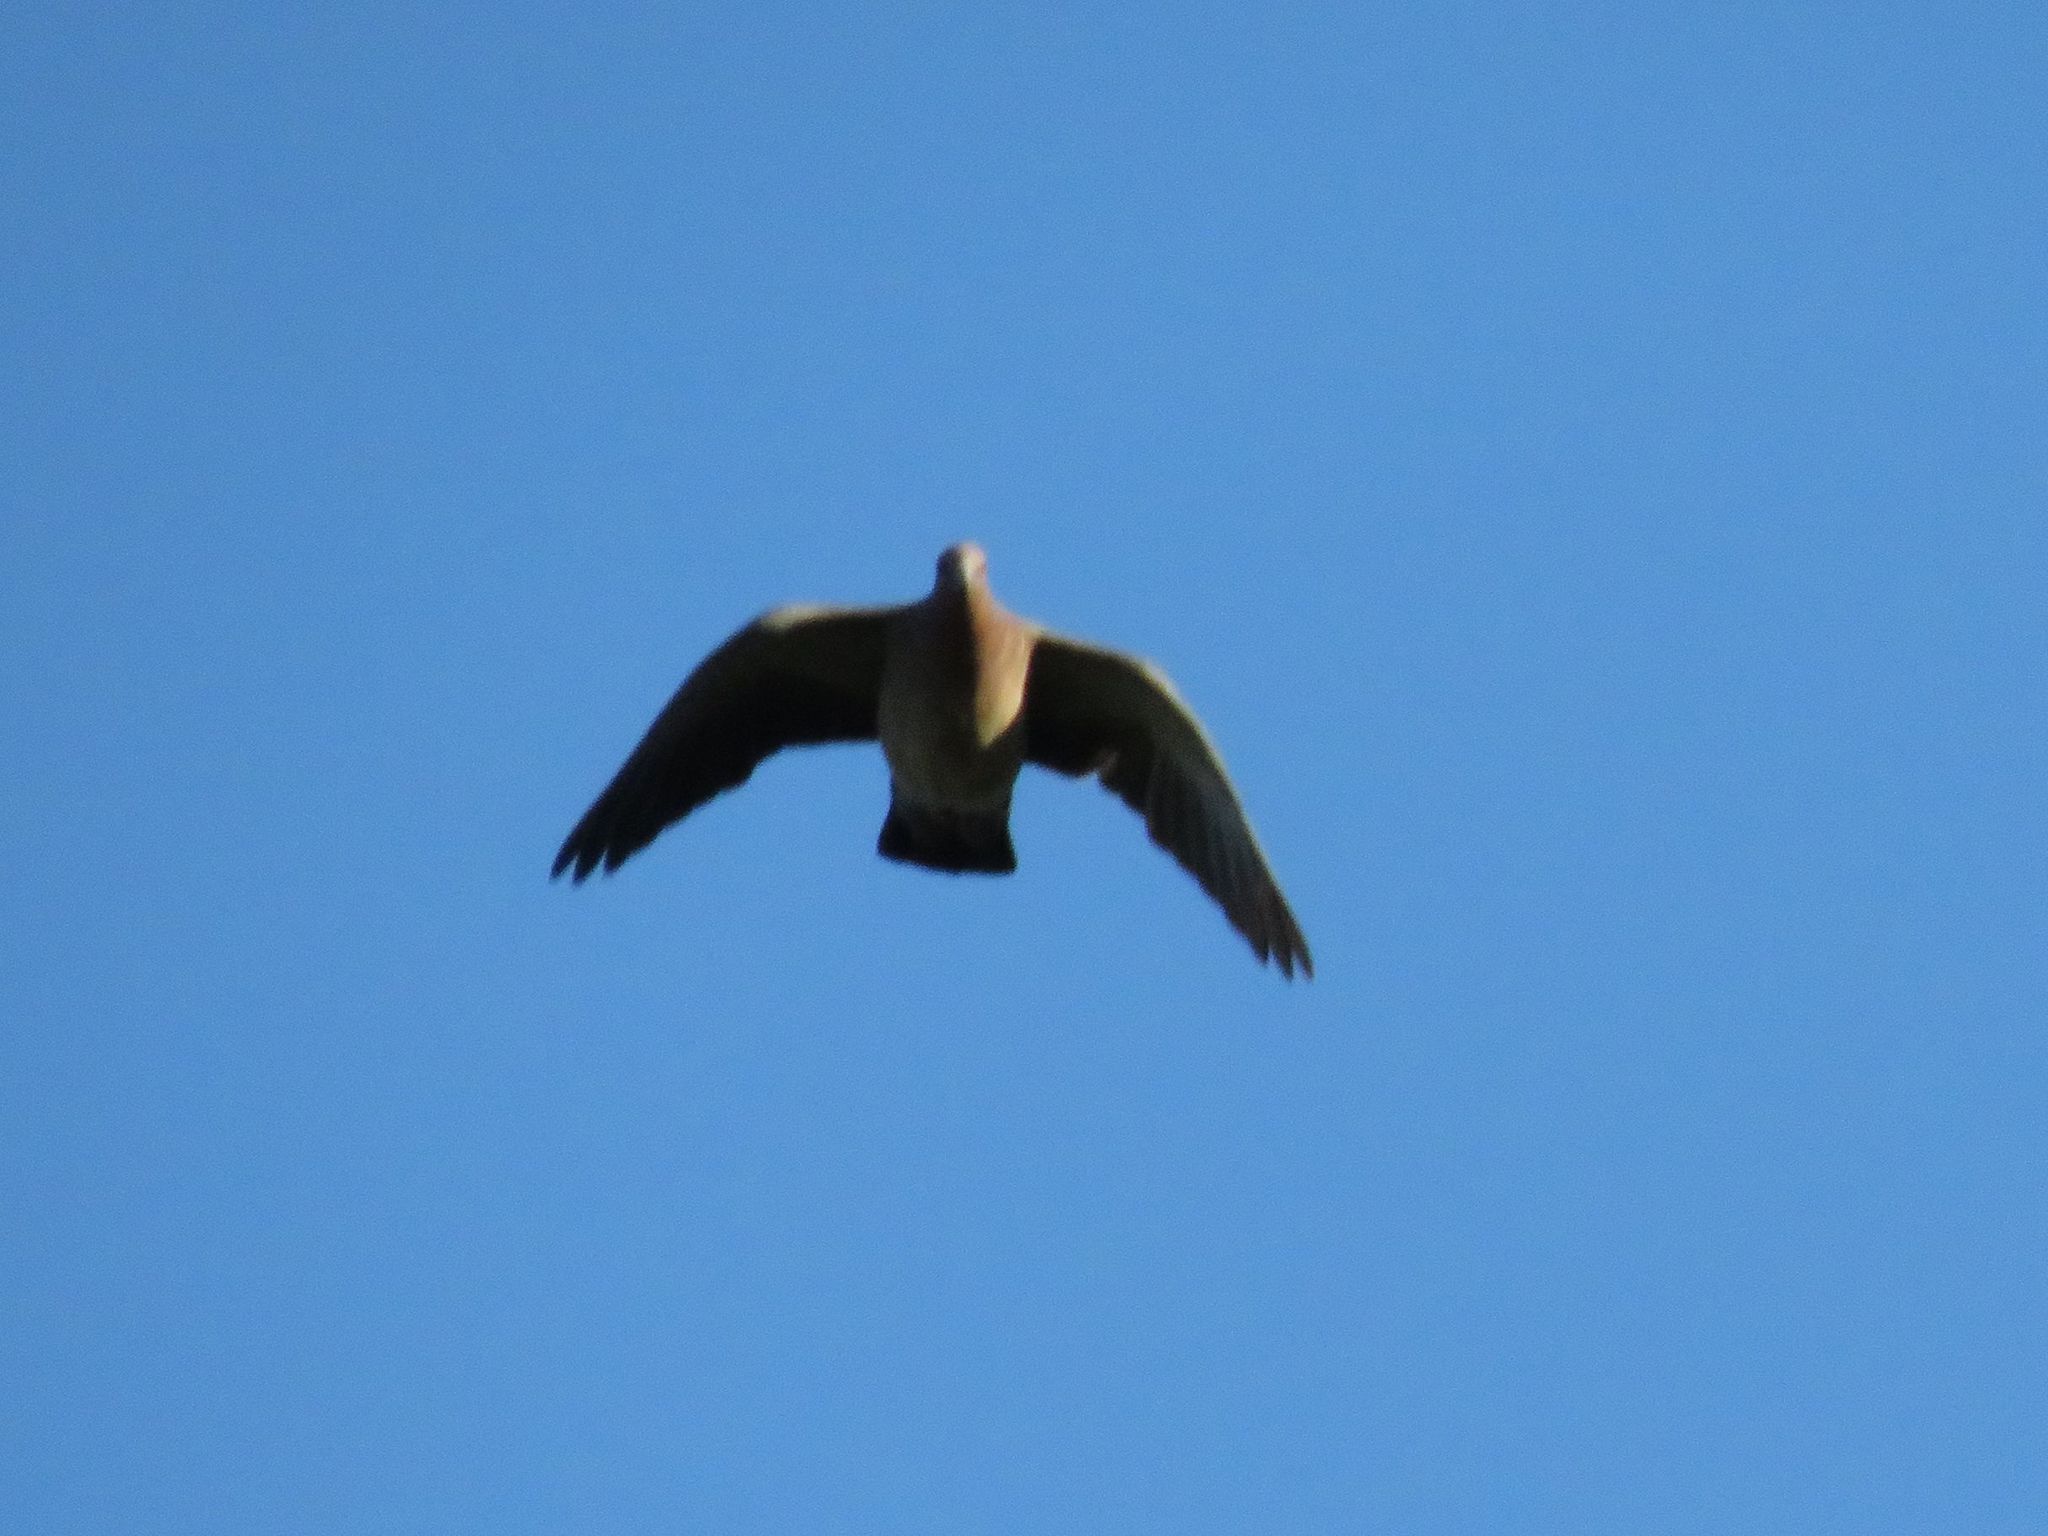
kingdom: Animalia
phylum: Chordata
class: Aves
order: Columbiformes
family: Columbidae
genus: Patagioenas
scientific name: Patagioenas picazuro
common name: Picazuro pigeon
